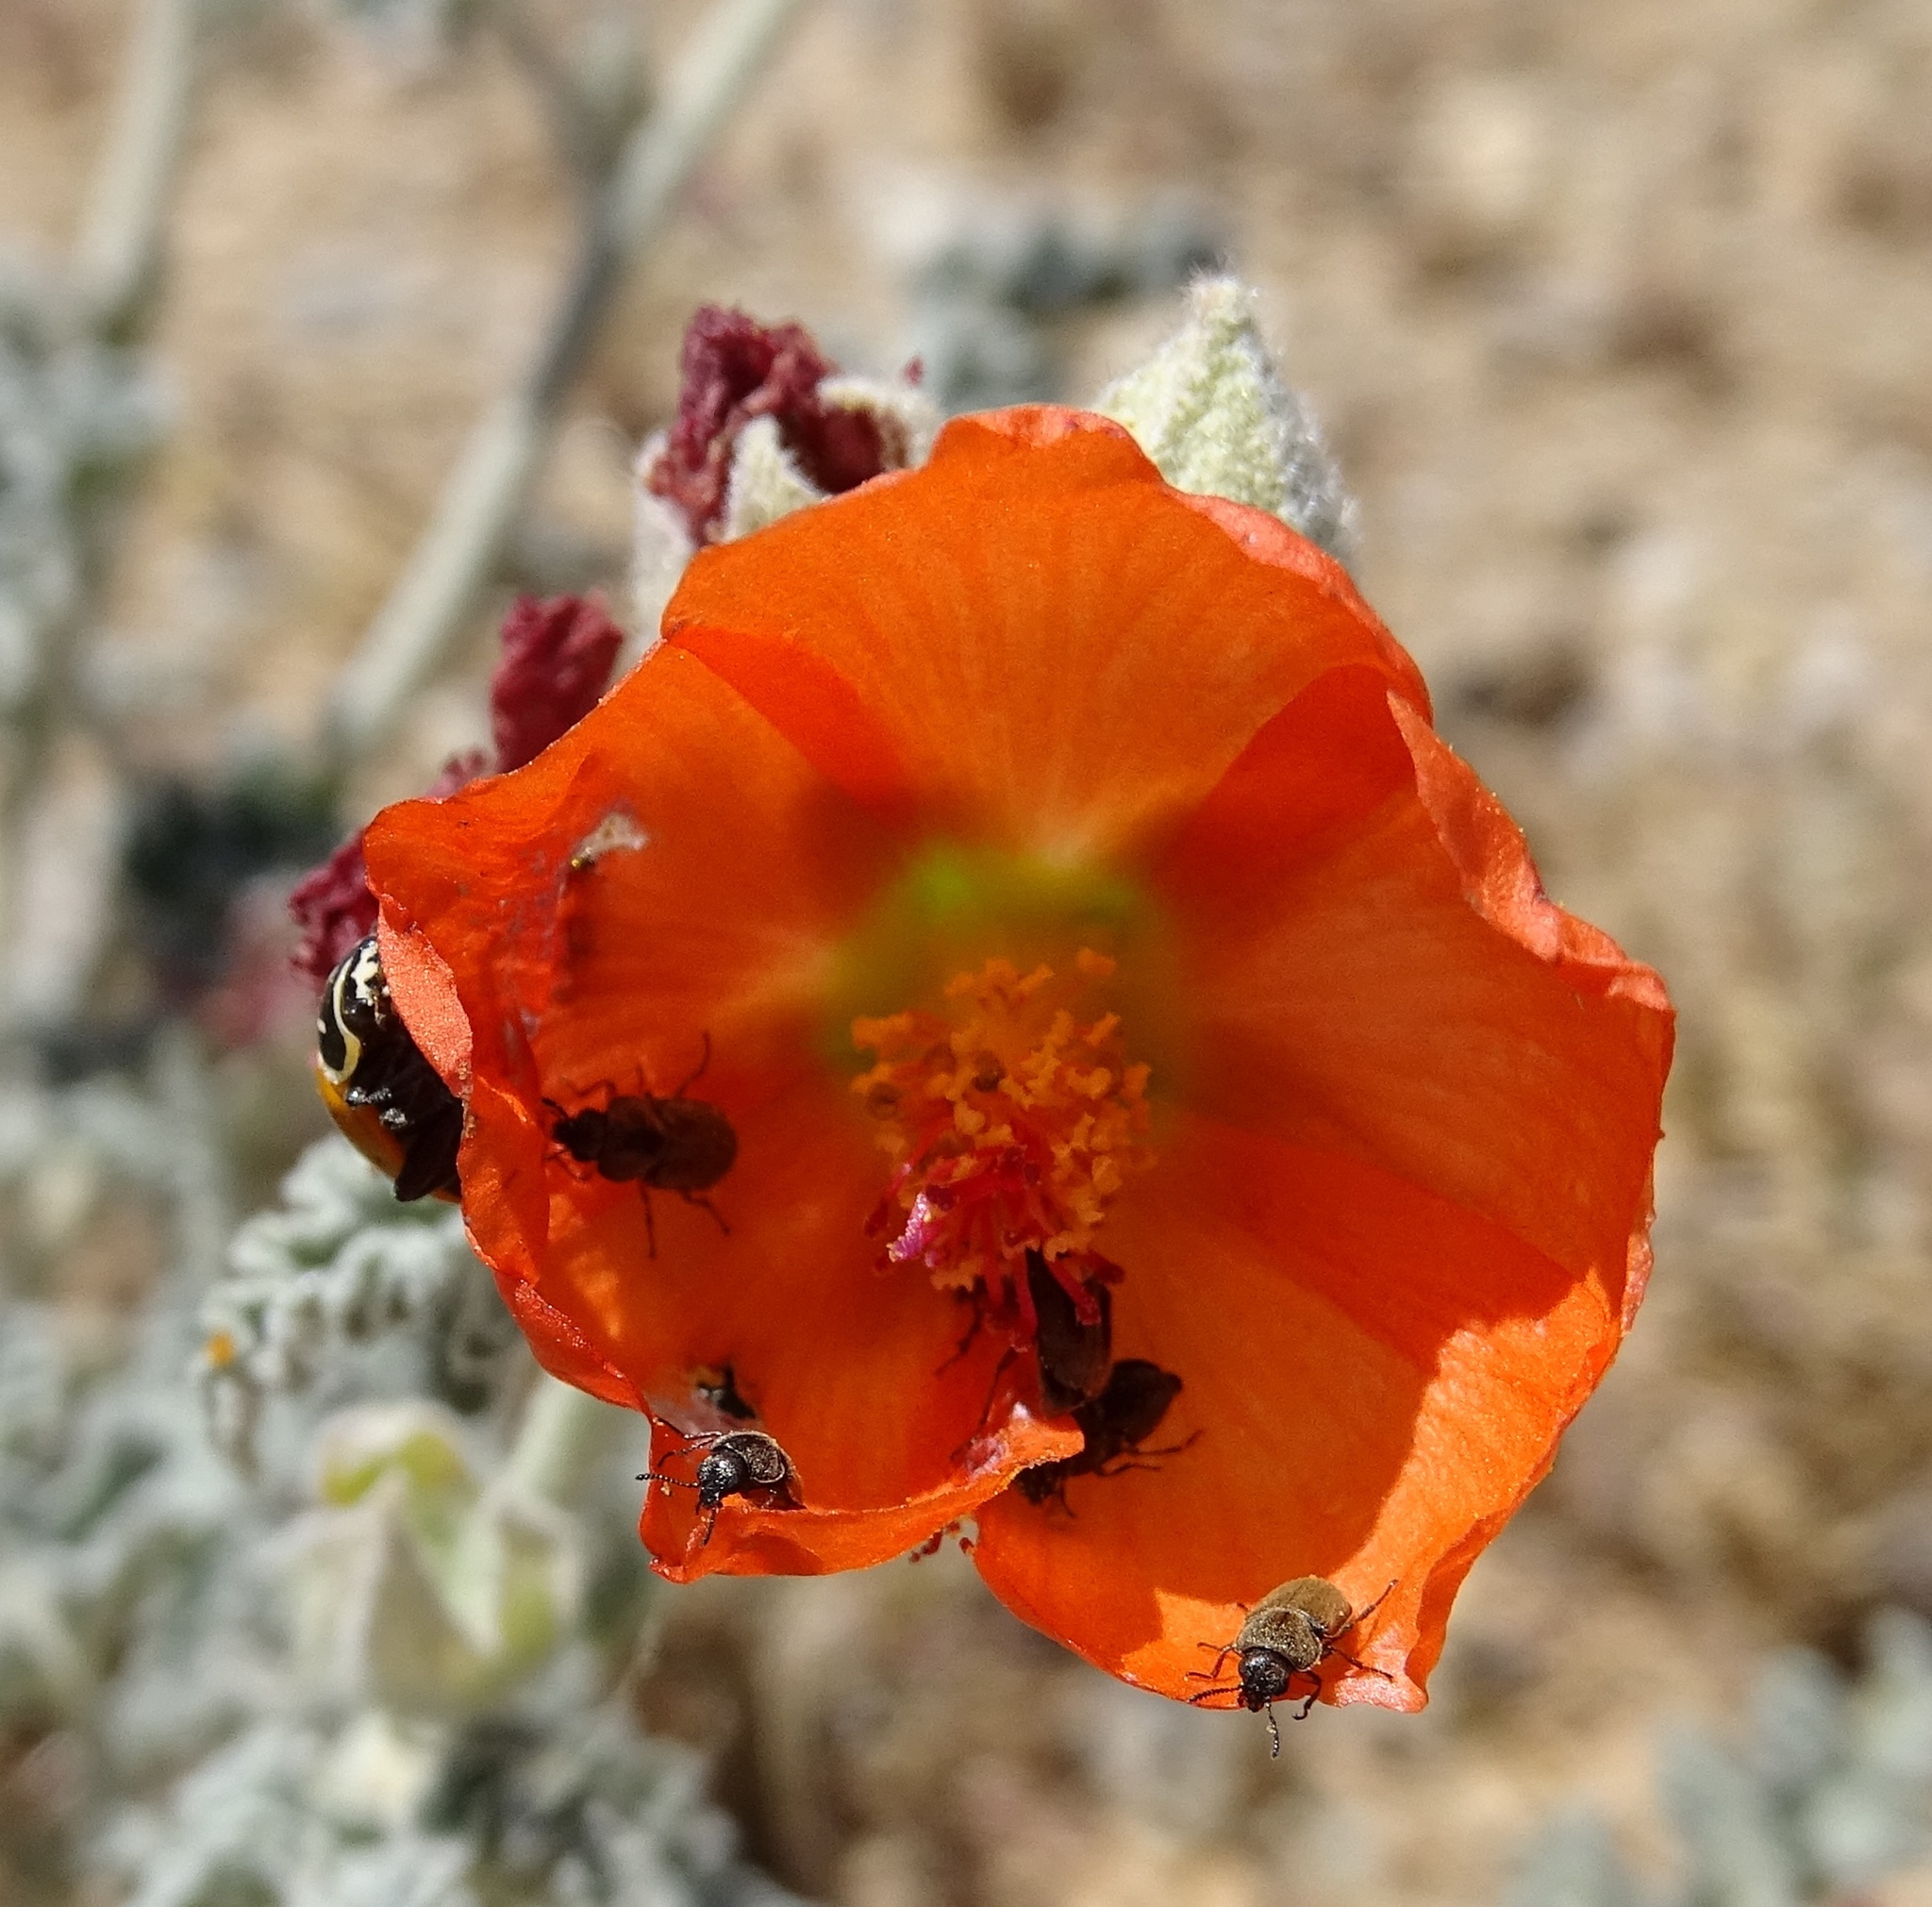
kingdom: Animalia
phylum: Arthropoda
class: Insecta
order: Coleoptera
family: Coccinellidae
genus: Hippodamia
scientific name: Hippodamia convergens
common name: Convergent lady beetle
